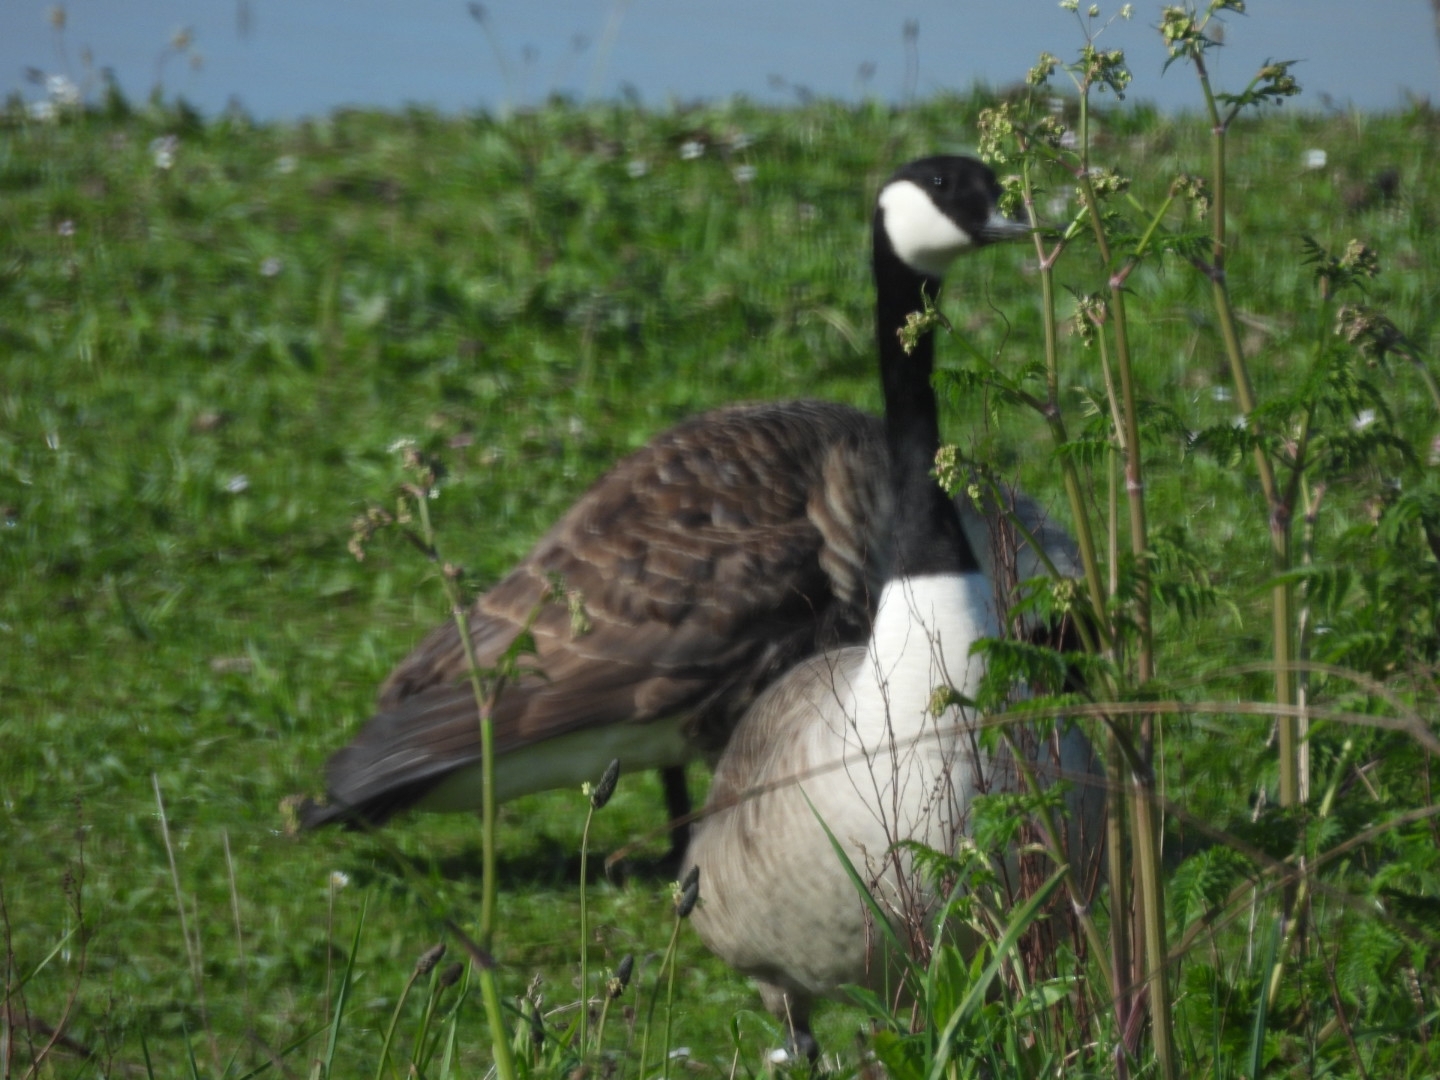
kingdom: Animalia
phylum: Chordata
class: Aves
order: Anseriformes
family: Anatidae
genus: Branta
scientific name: Branta canadensis
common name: Canada goose
